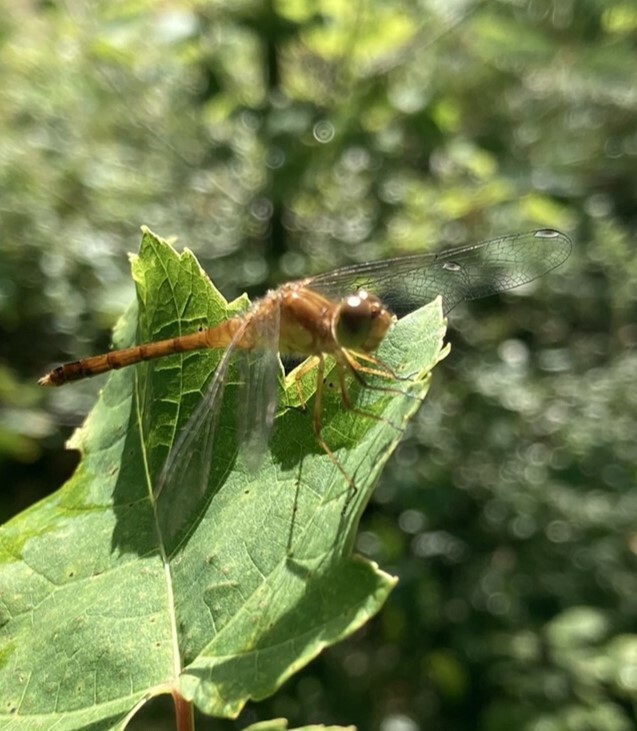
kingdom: Animalia
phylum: Arthropoda
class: Insecta
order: Odonata
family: Libellulidae
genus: Sympetrum
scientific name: Sympetrum vicinum
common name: Autumn meadowhawk
